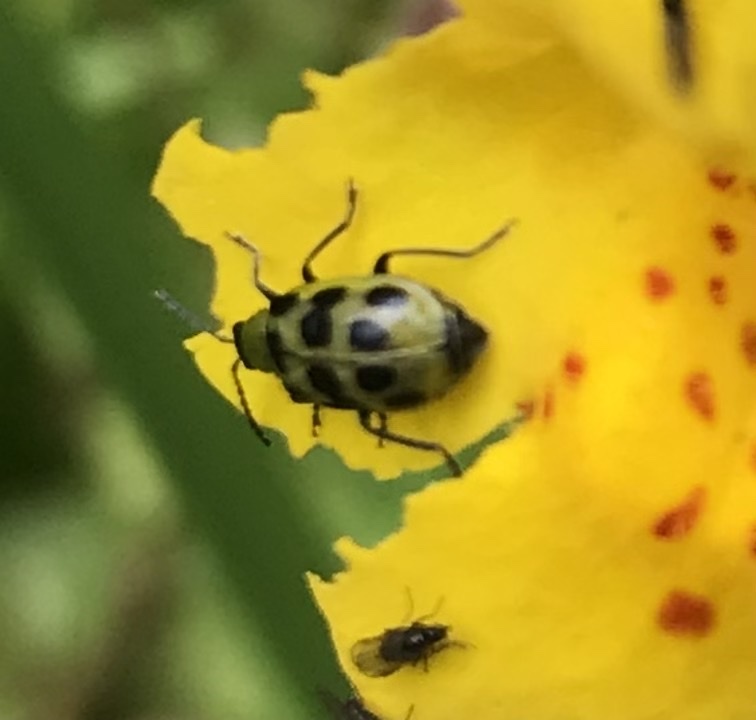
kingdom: Animalia
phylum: Arthropoda
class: Insecta
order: Coleoptera
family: Chrysomelidae
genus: Diabrotica
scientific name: Diabrotica undecimpunctata
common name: Spotted cucumber beetle
